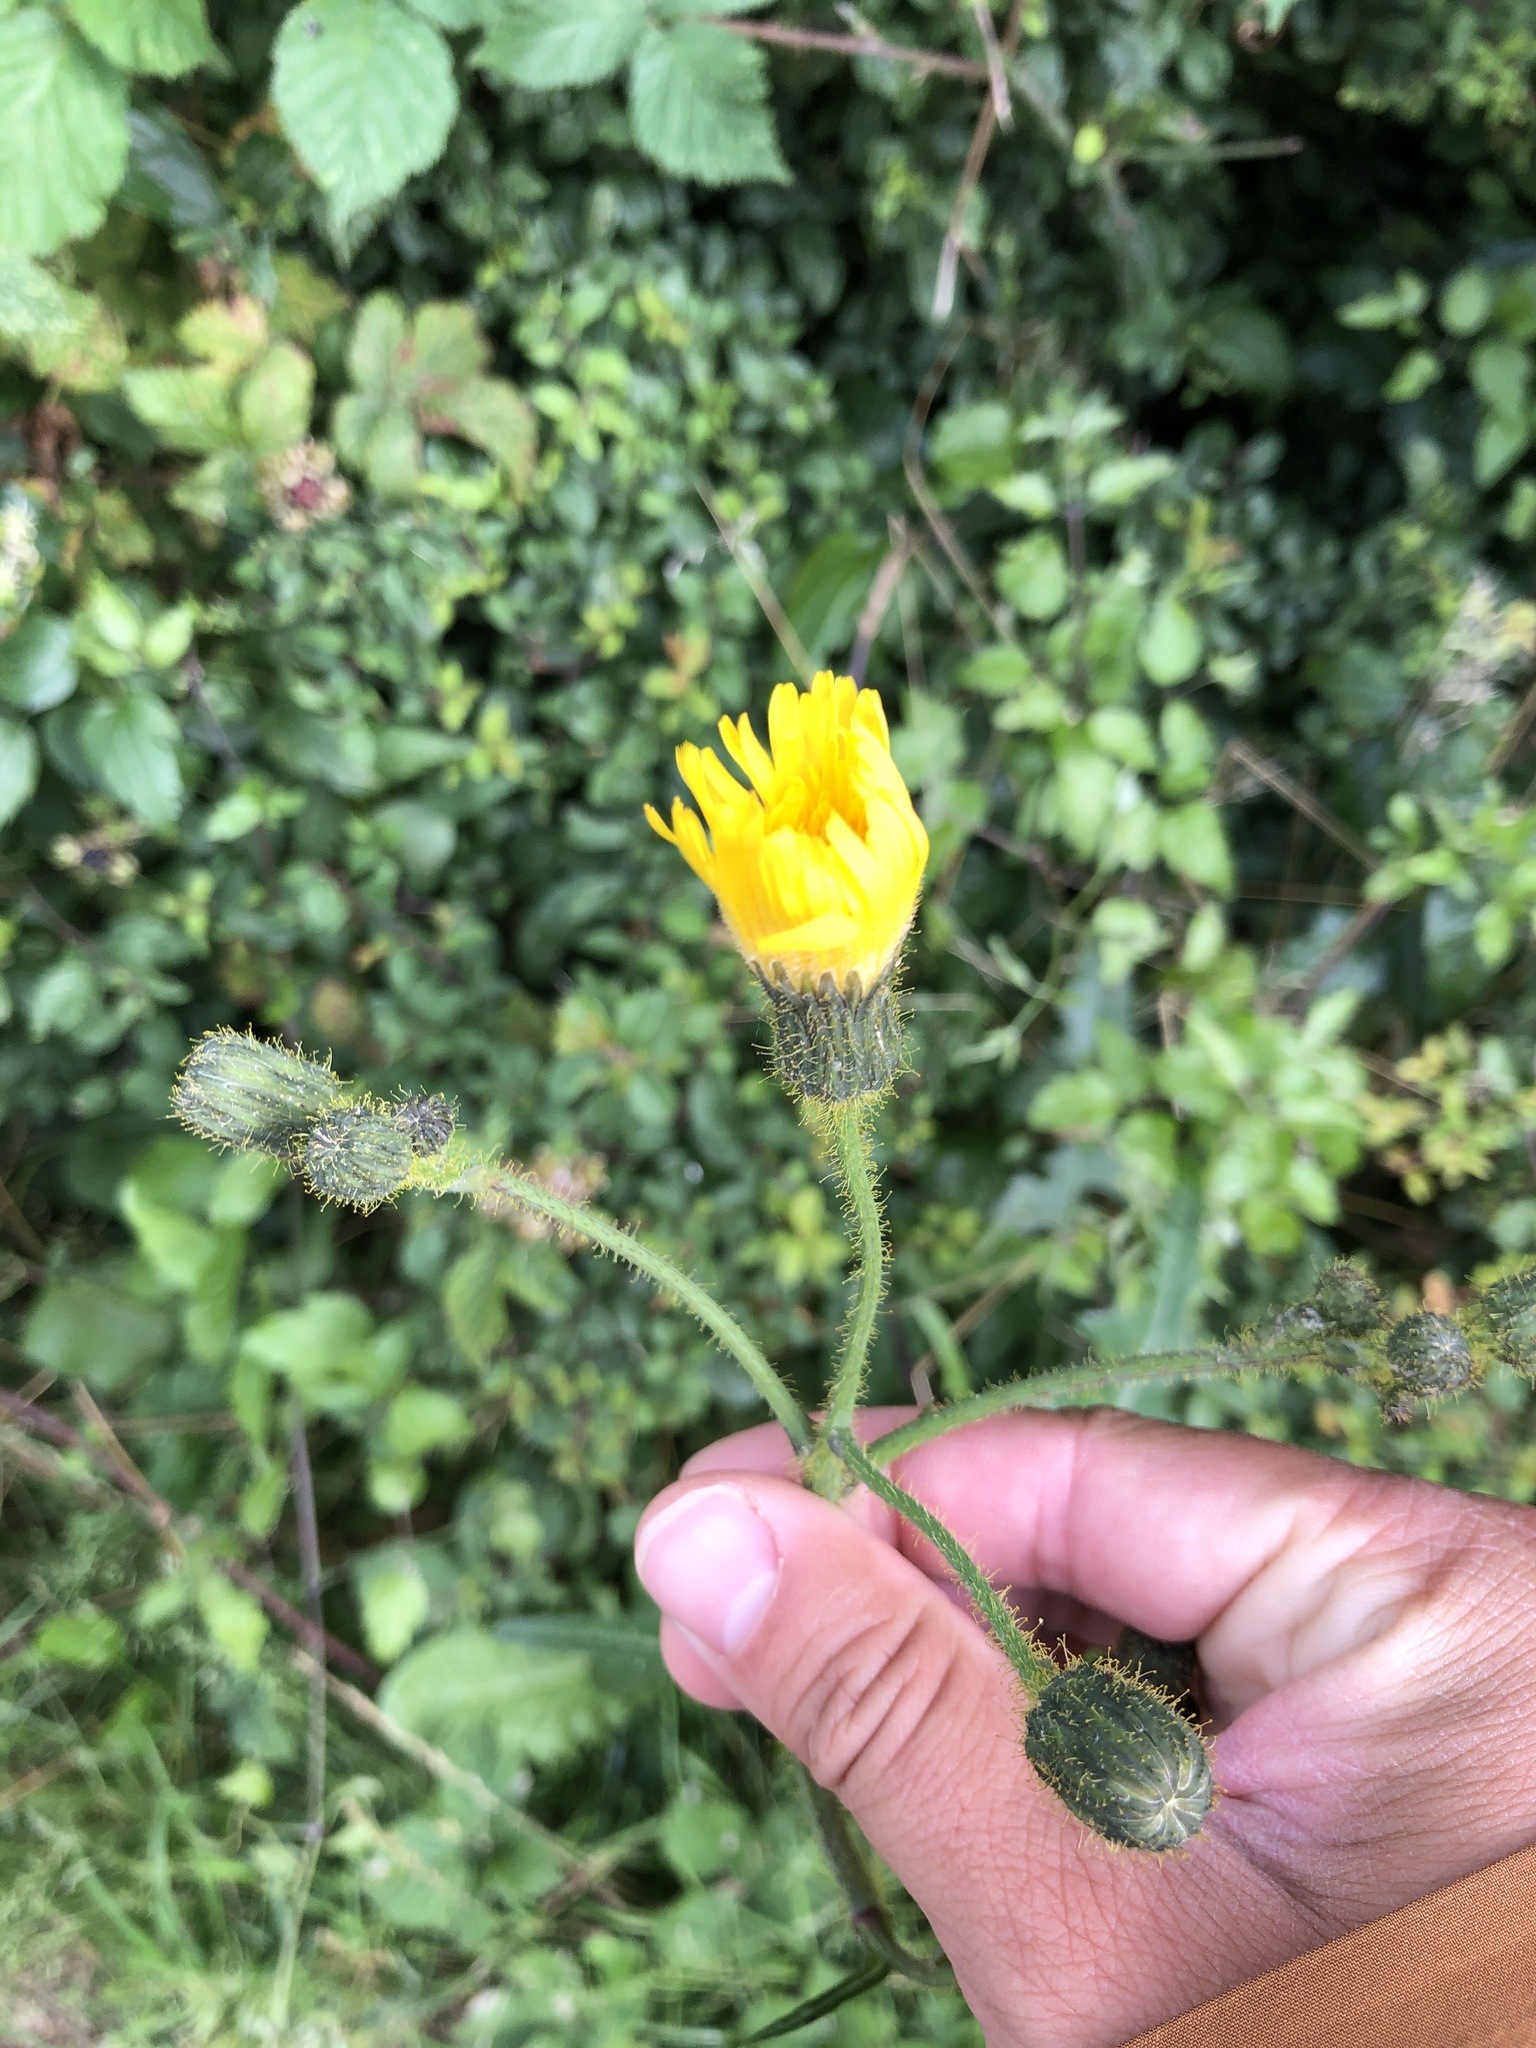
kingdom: Plantae
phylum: Tracheophyta
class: Magnoliopsida
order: Asterales
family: Asteraceae
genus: Sonchus
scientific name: Sonchus arvensis
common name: Perennial sow-thistle
